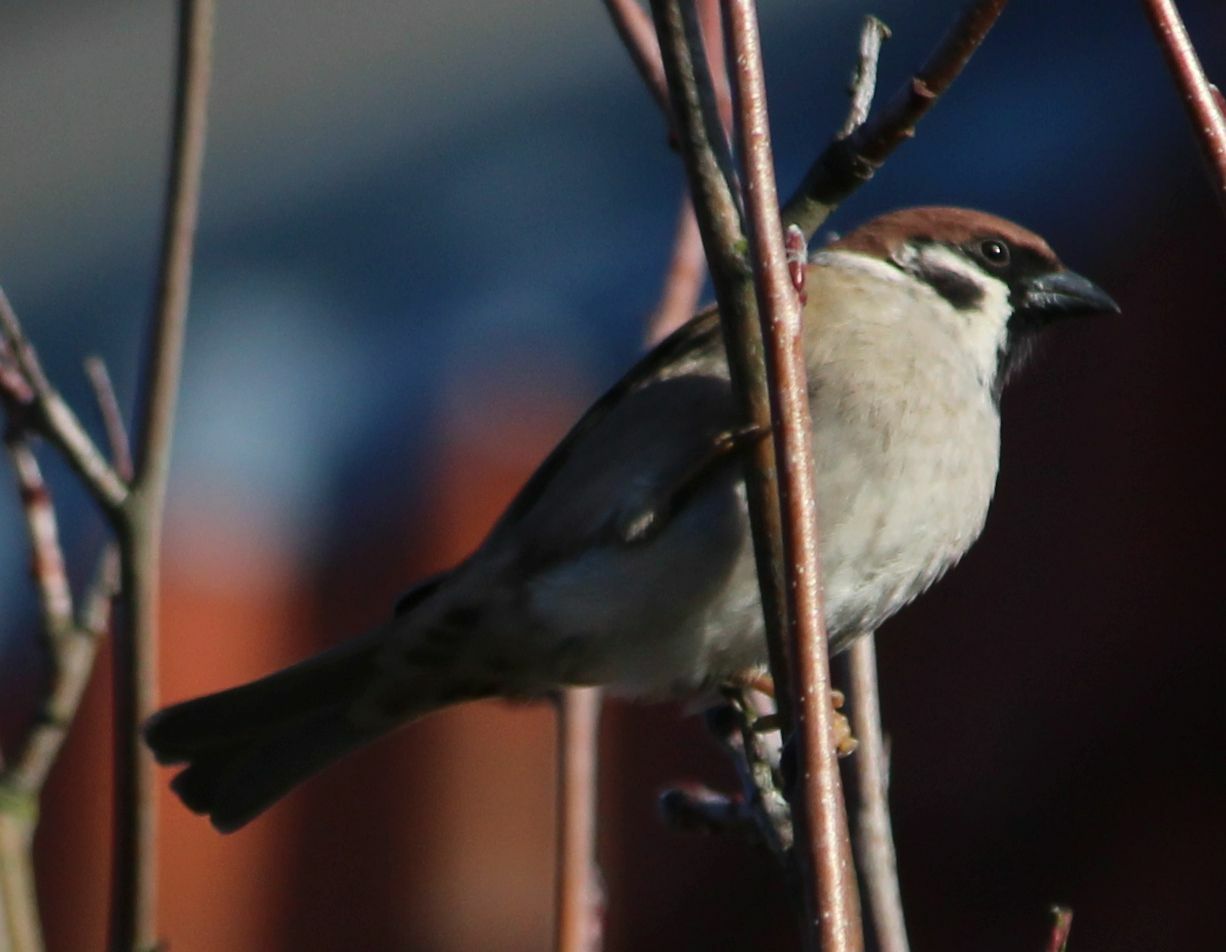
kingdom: Animalia
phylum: Chordata
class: Aves
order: Passeriformes
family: Passeridae
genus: Passer
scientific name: Passer montanus
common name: Eurasian tree sparrow
